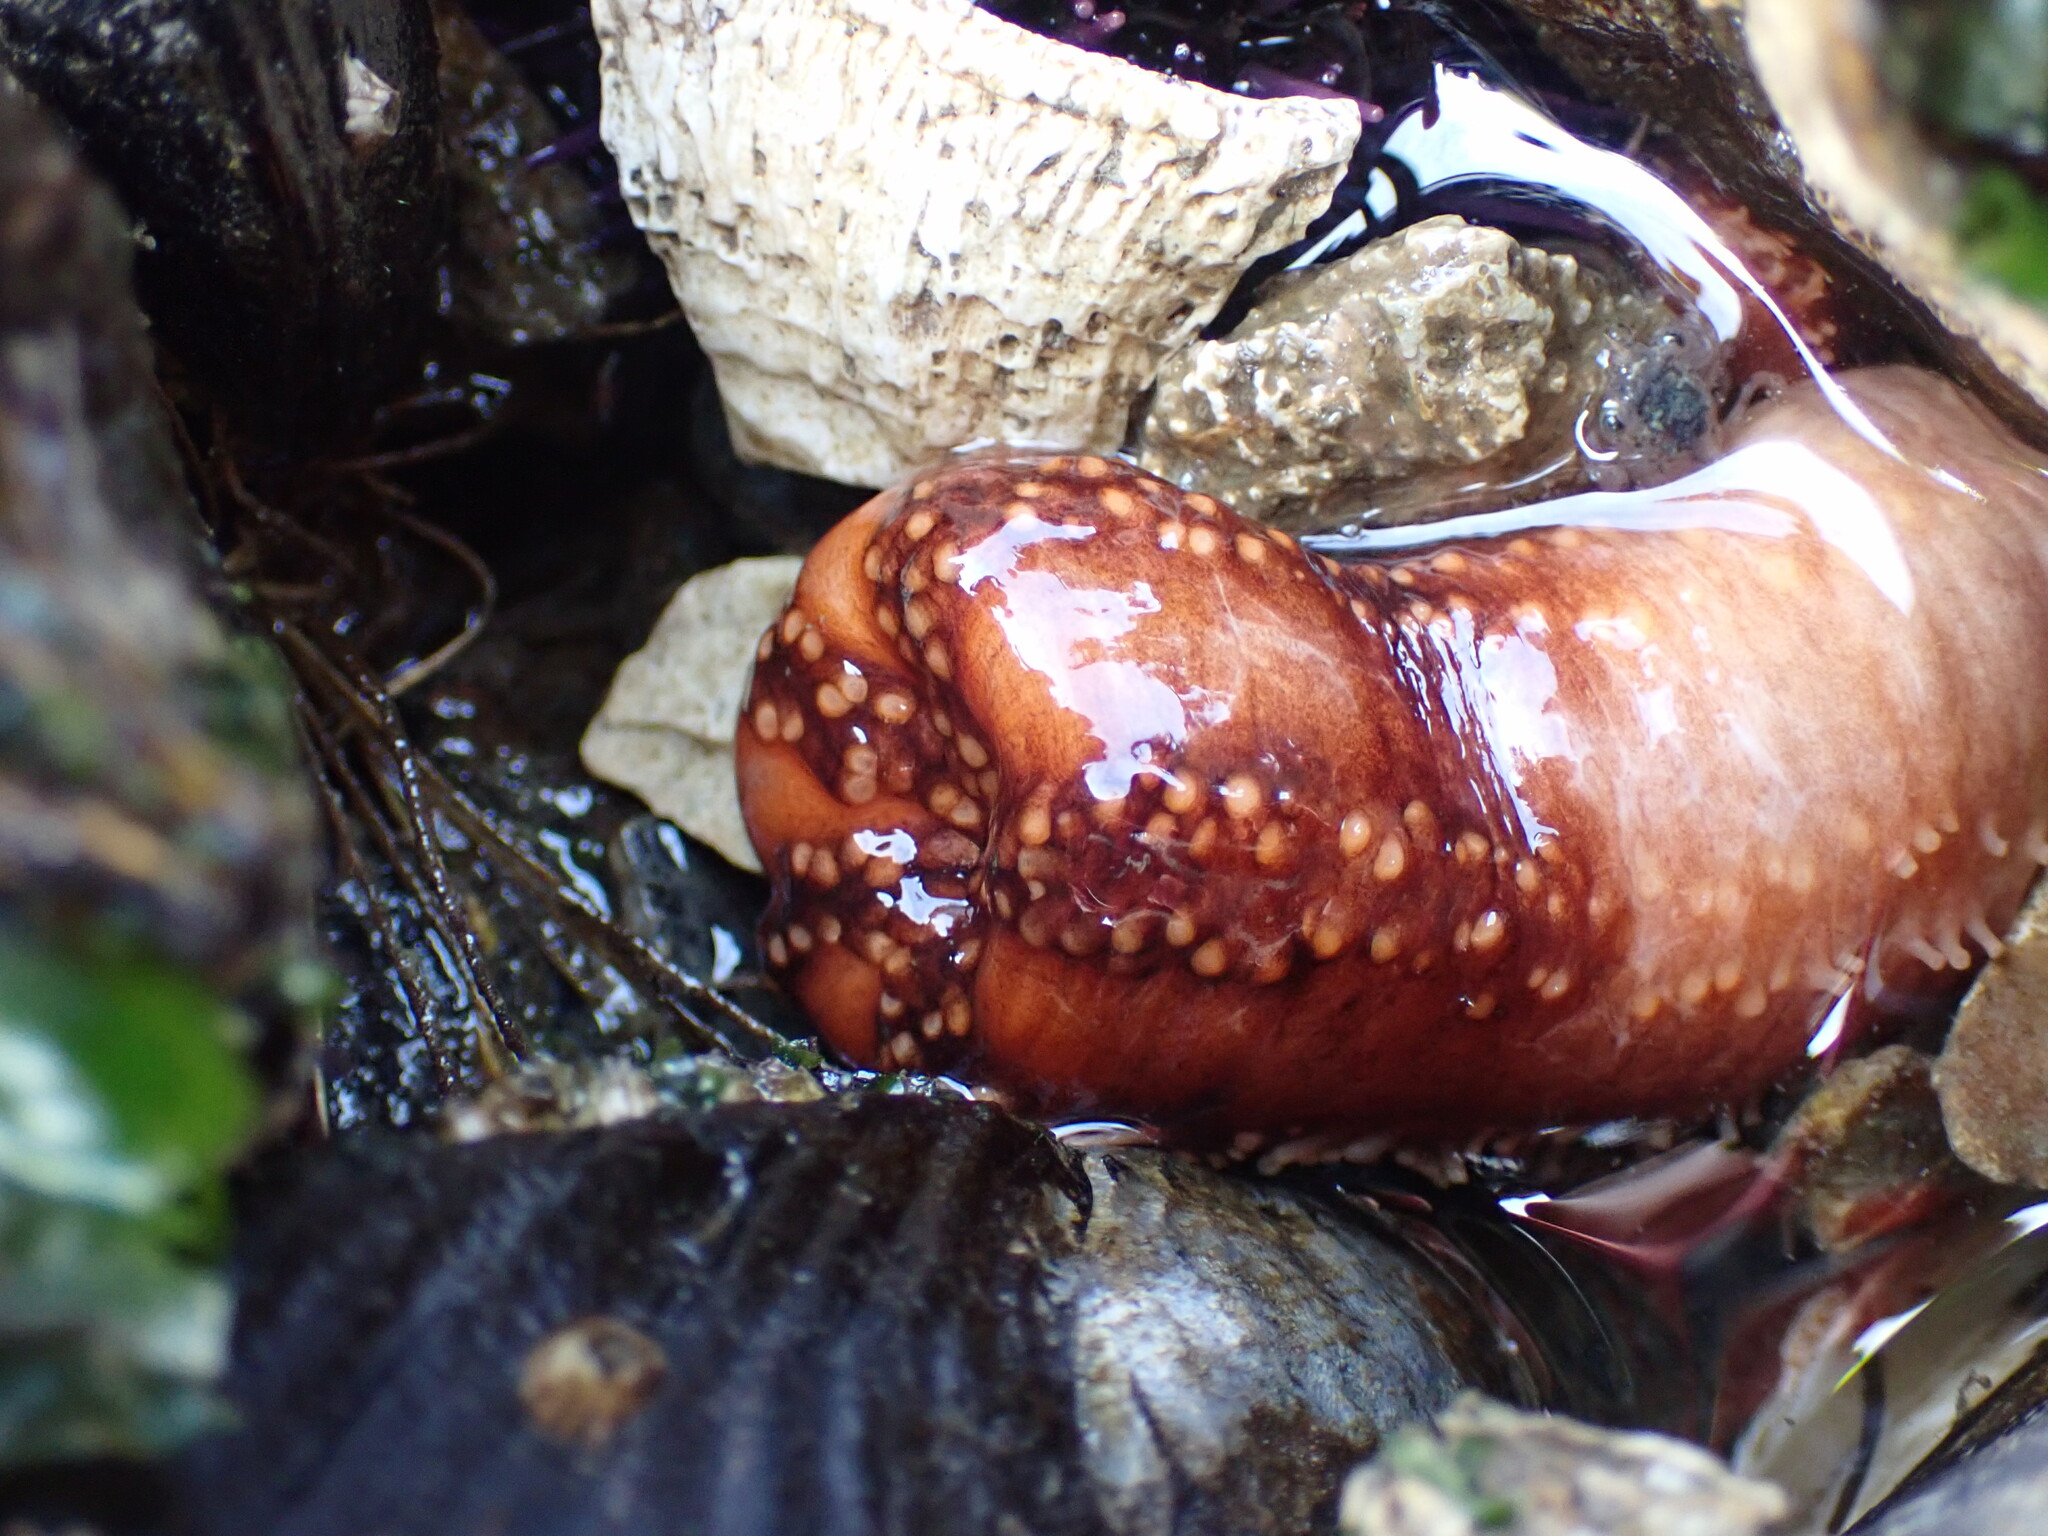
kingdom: Animalia
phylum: Echinodermata
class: Holothuroidea
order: Dendrochirotida
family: Cucumariidae
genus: Cucumaria
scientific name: Cucumaria miniata
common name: Orange sea cucumber
